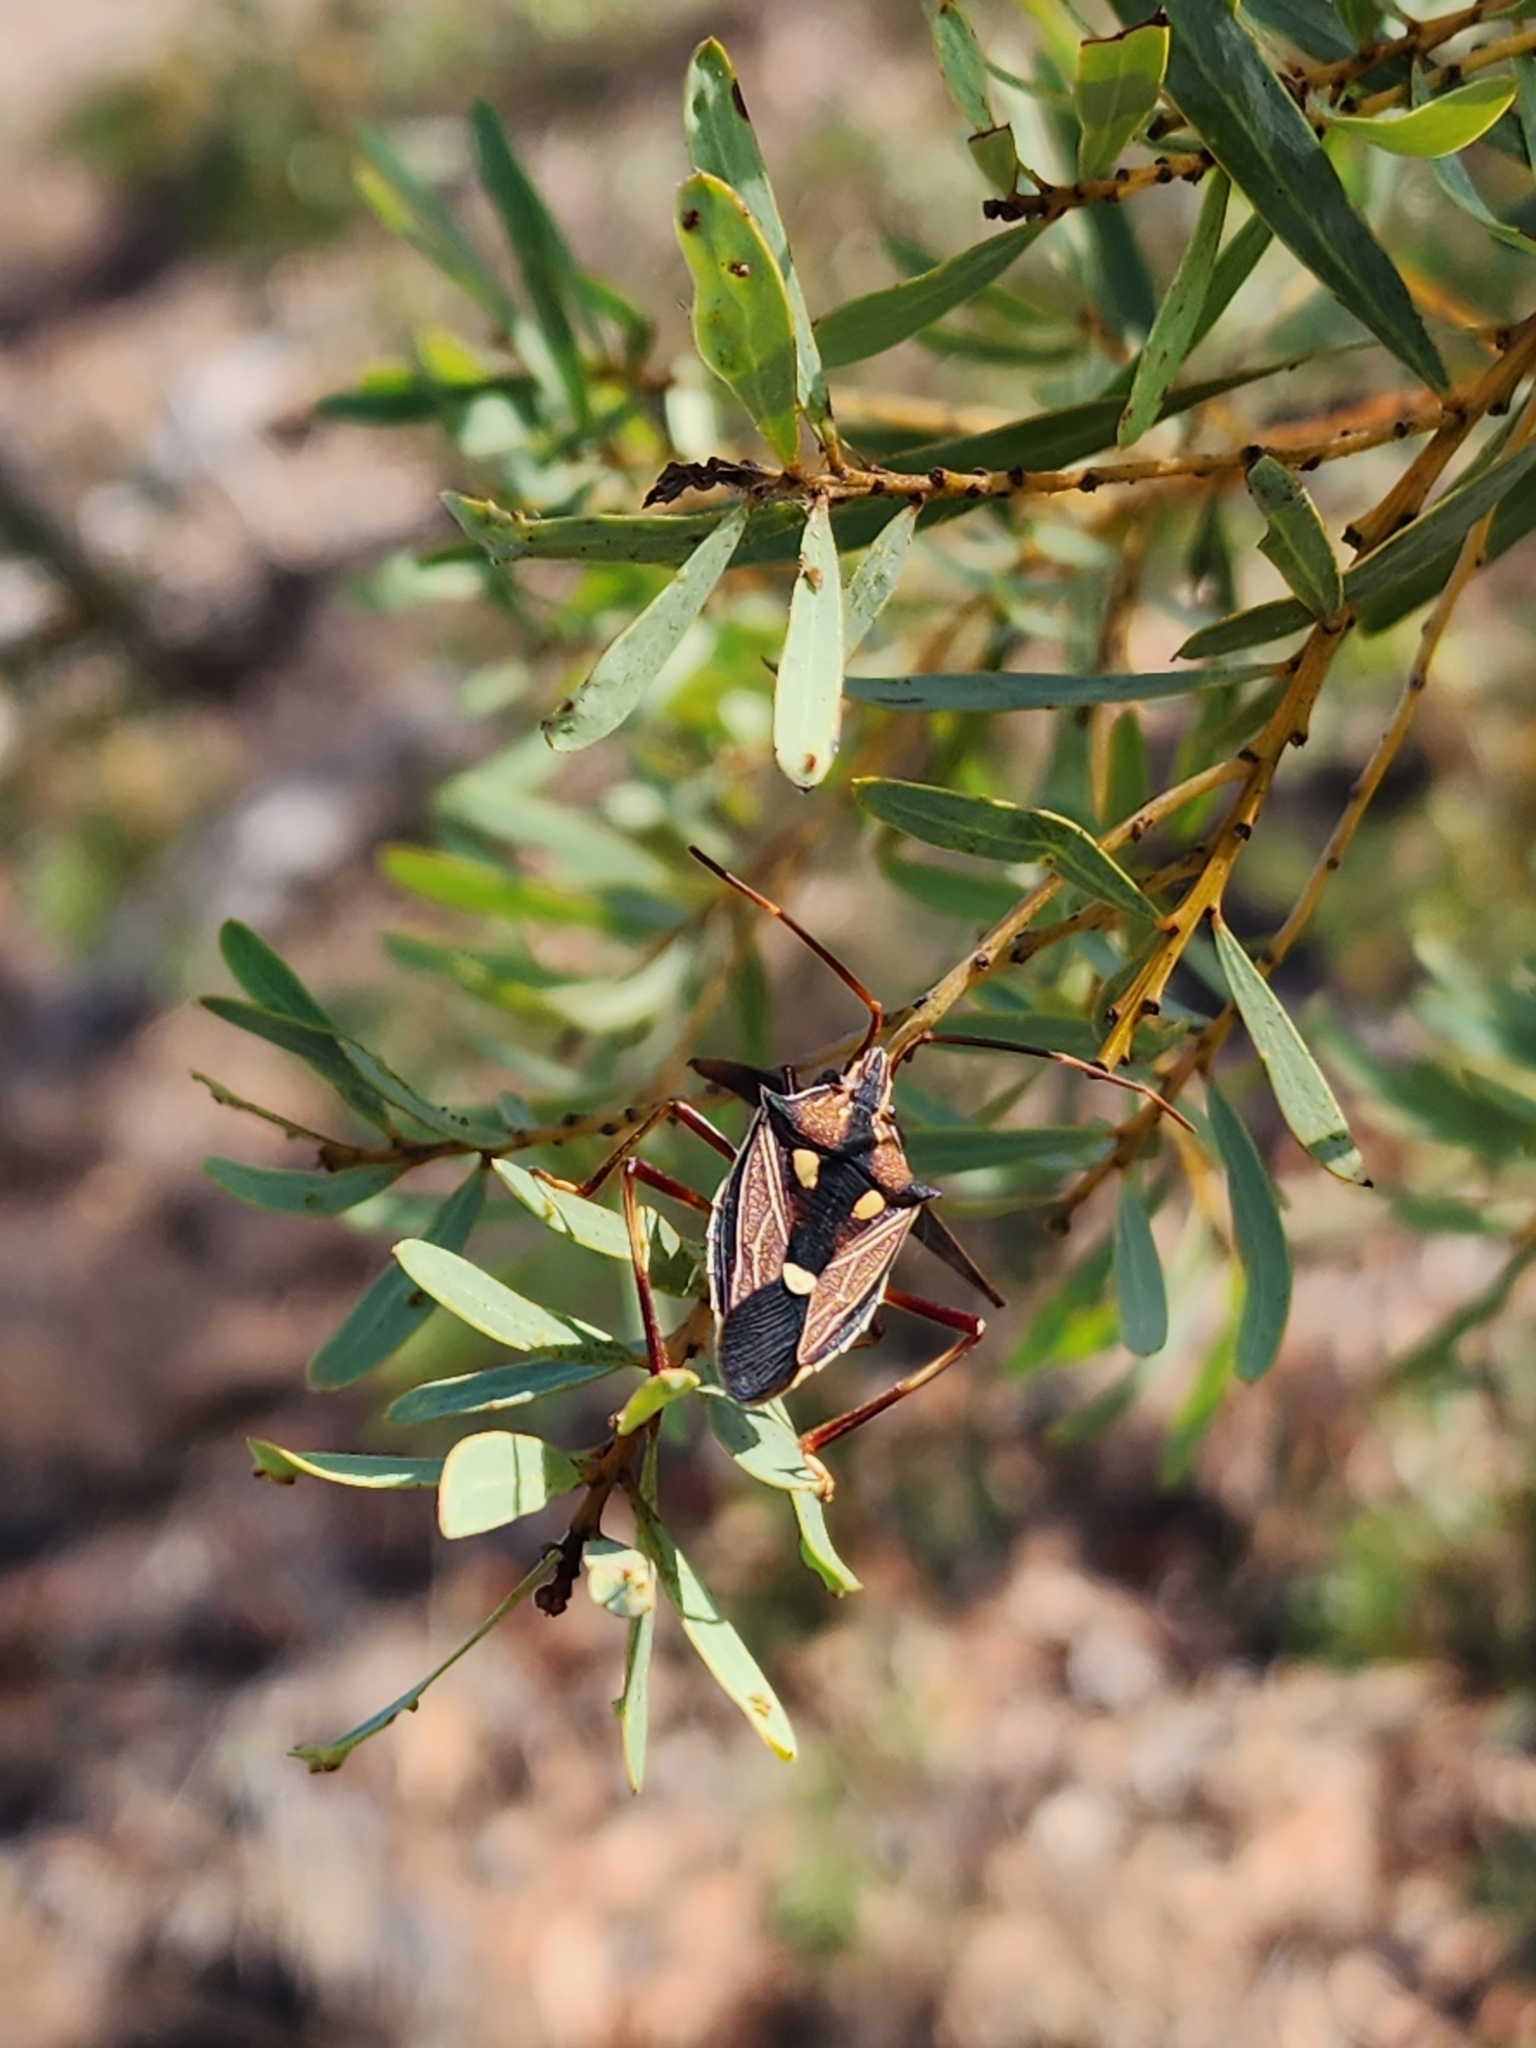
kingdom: Animalia
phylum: Arthropoda
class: Insecta
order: Hemiptera
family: Pentatomidae
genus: Poecilometis
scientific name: Poecilometis armatus
